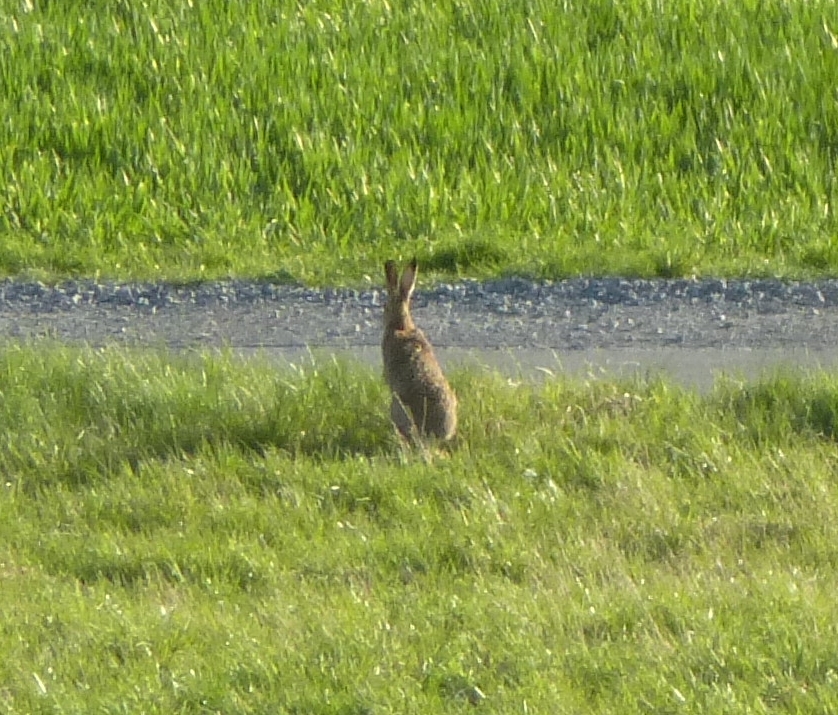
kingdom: Animalia
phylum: Chordata
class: Mammalia
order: Lagomorpha
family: Leporidae
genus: Lepus
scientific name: Lepus europaeus
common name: European hare
